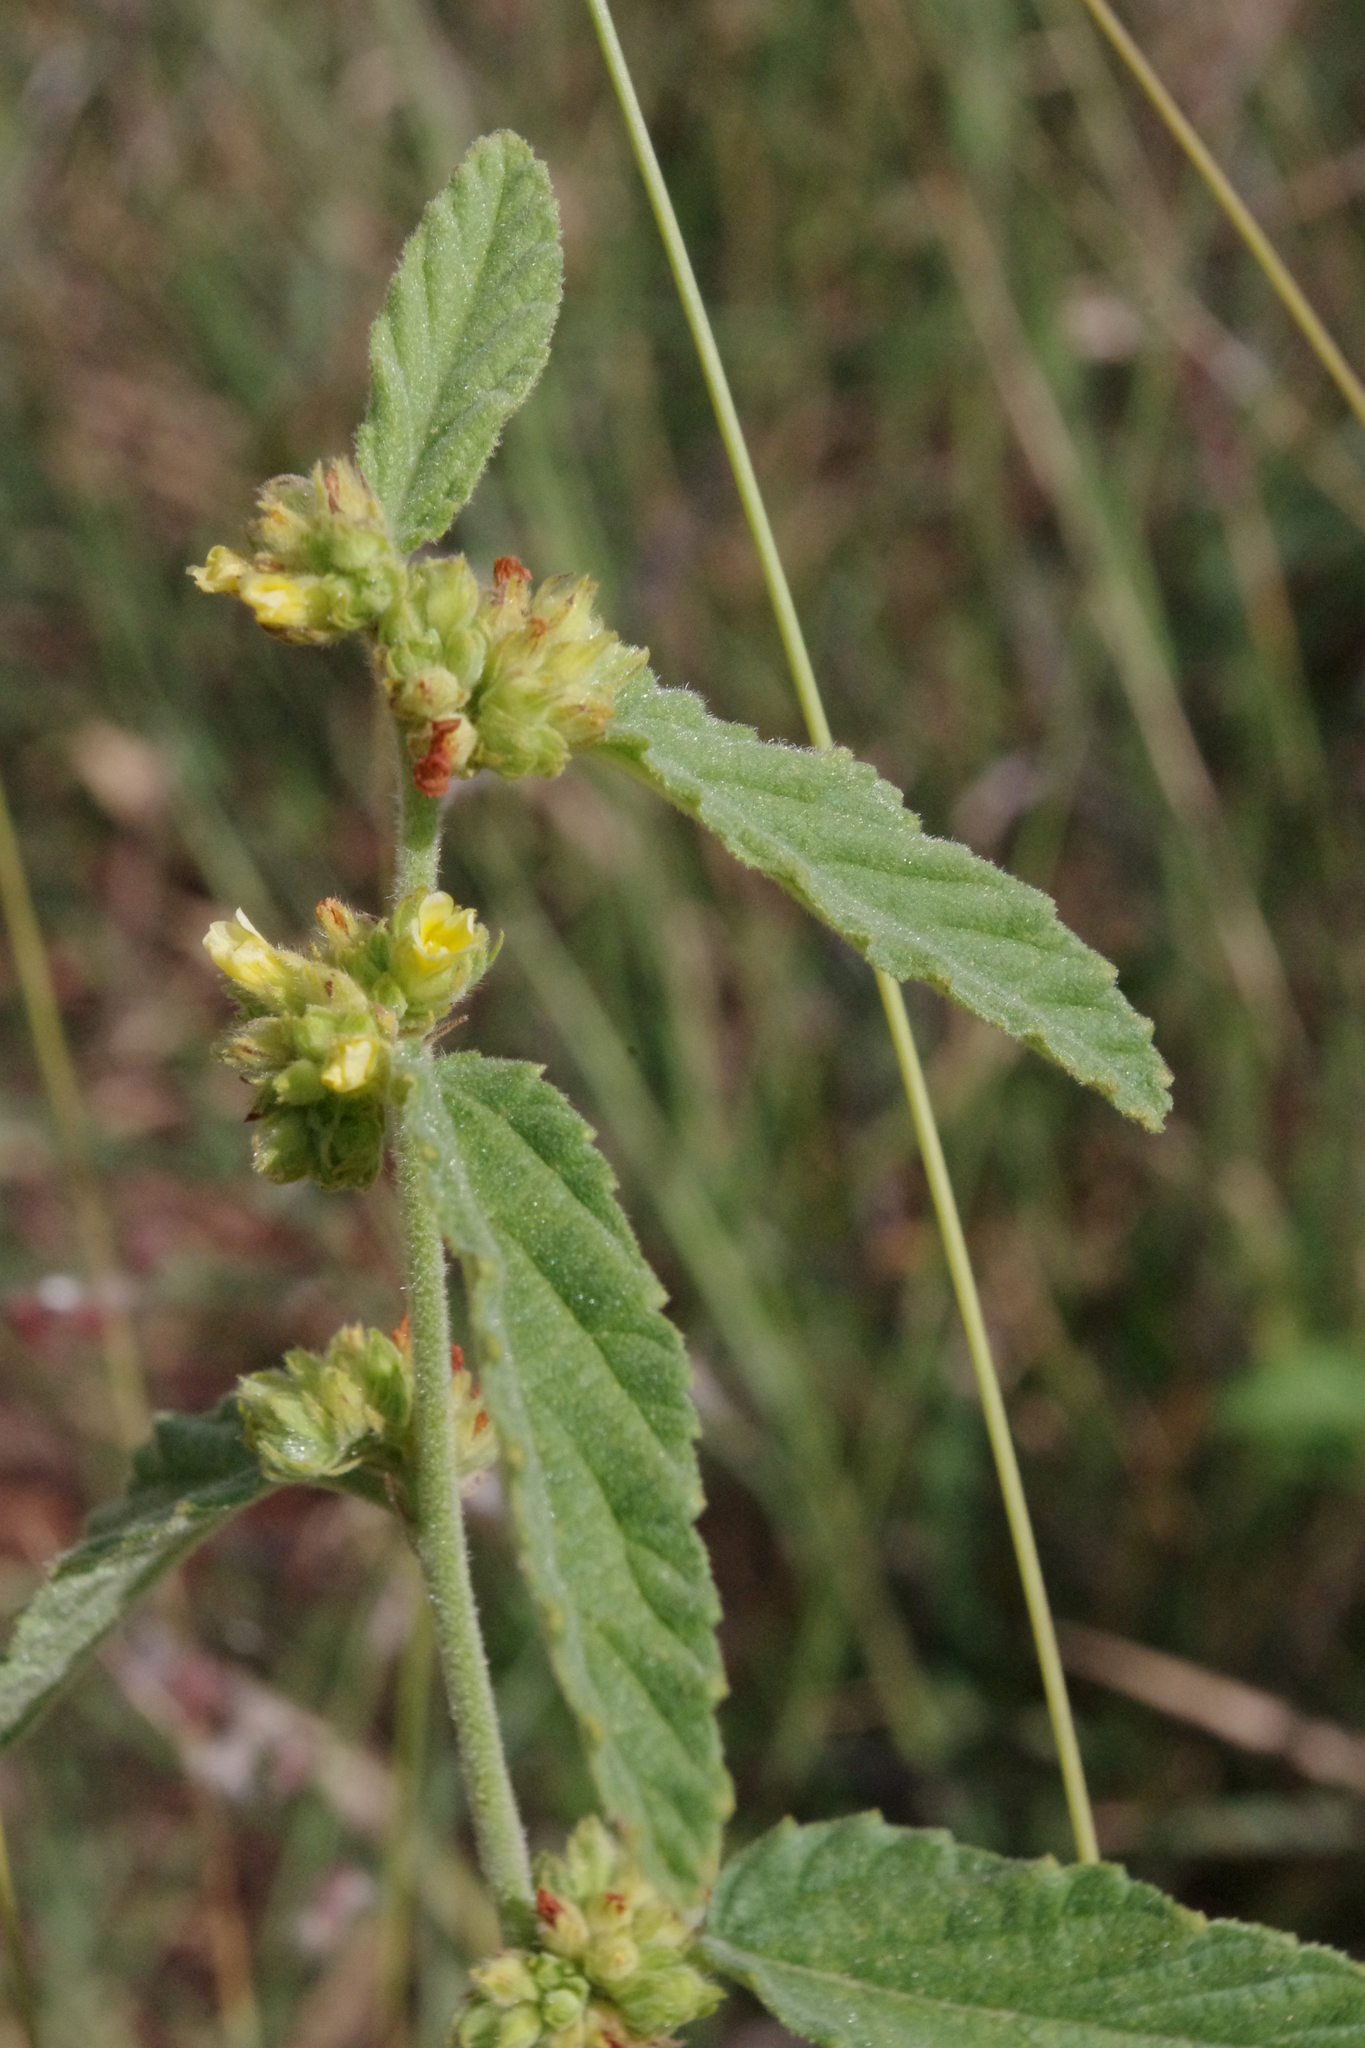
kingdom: Plantae
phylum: Tracheophyta
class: Magnoliopsida
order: Malvales
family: Malvaceae
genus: Waltheria
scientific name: Waltheria indica
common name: Leather-coat
